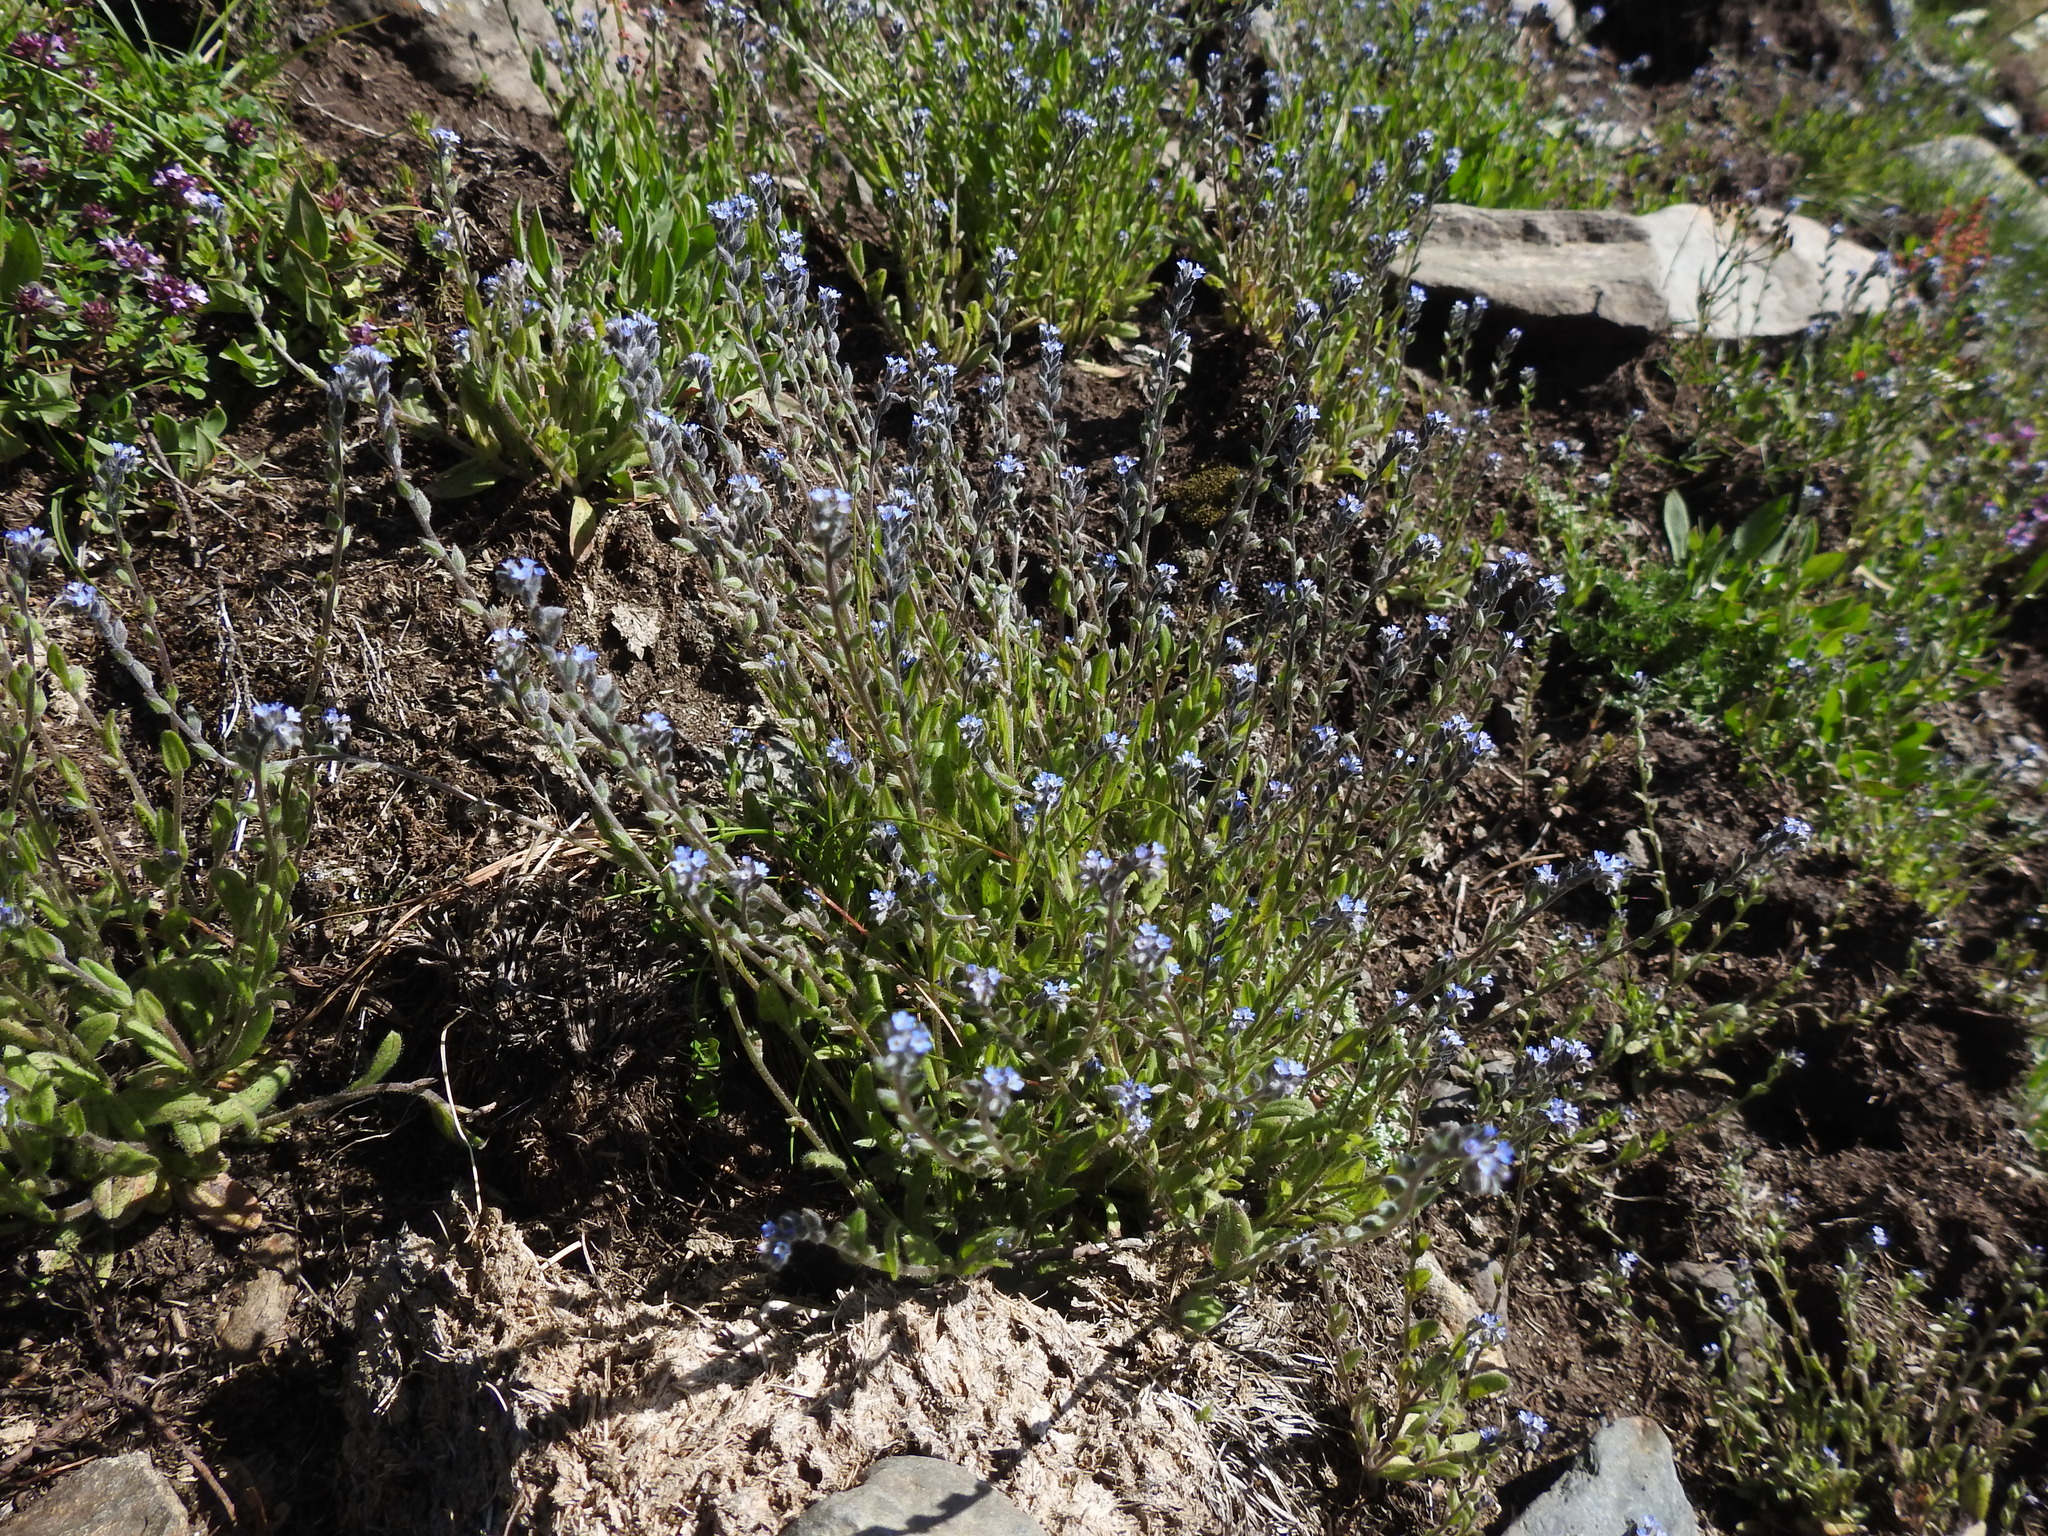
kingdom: Plantae
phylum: Tracheophyta
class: Magnoliopsida
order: Boraginales
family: Boraginaceae
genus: Myosotis
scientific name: Myosotis stricta
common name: Strict forget-me-not
